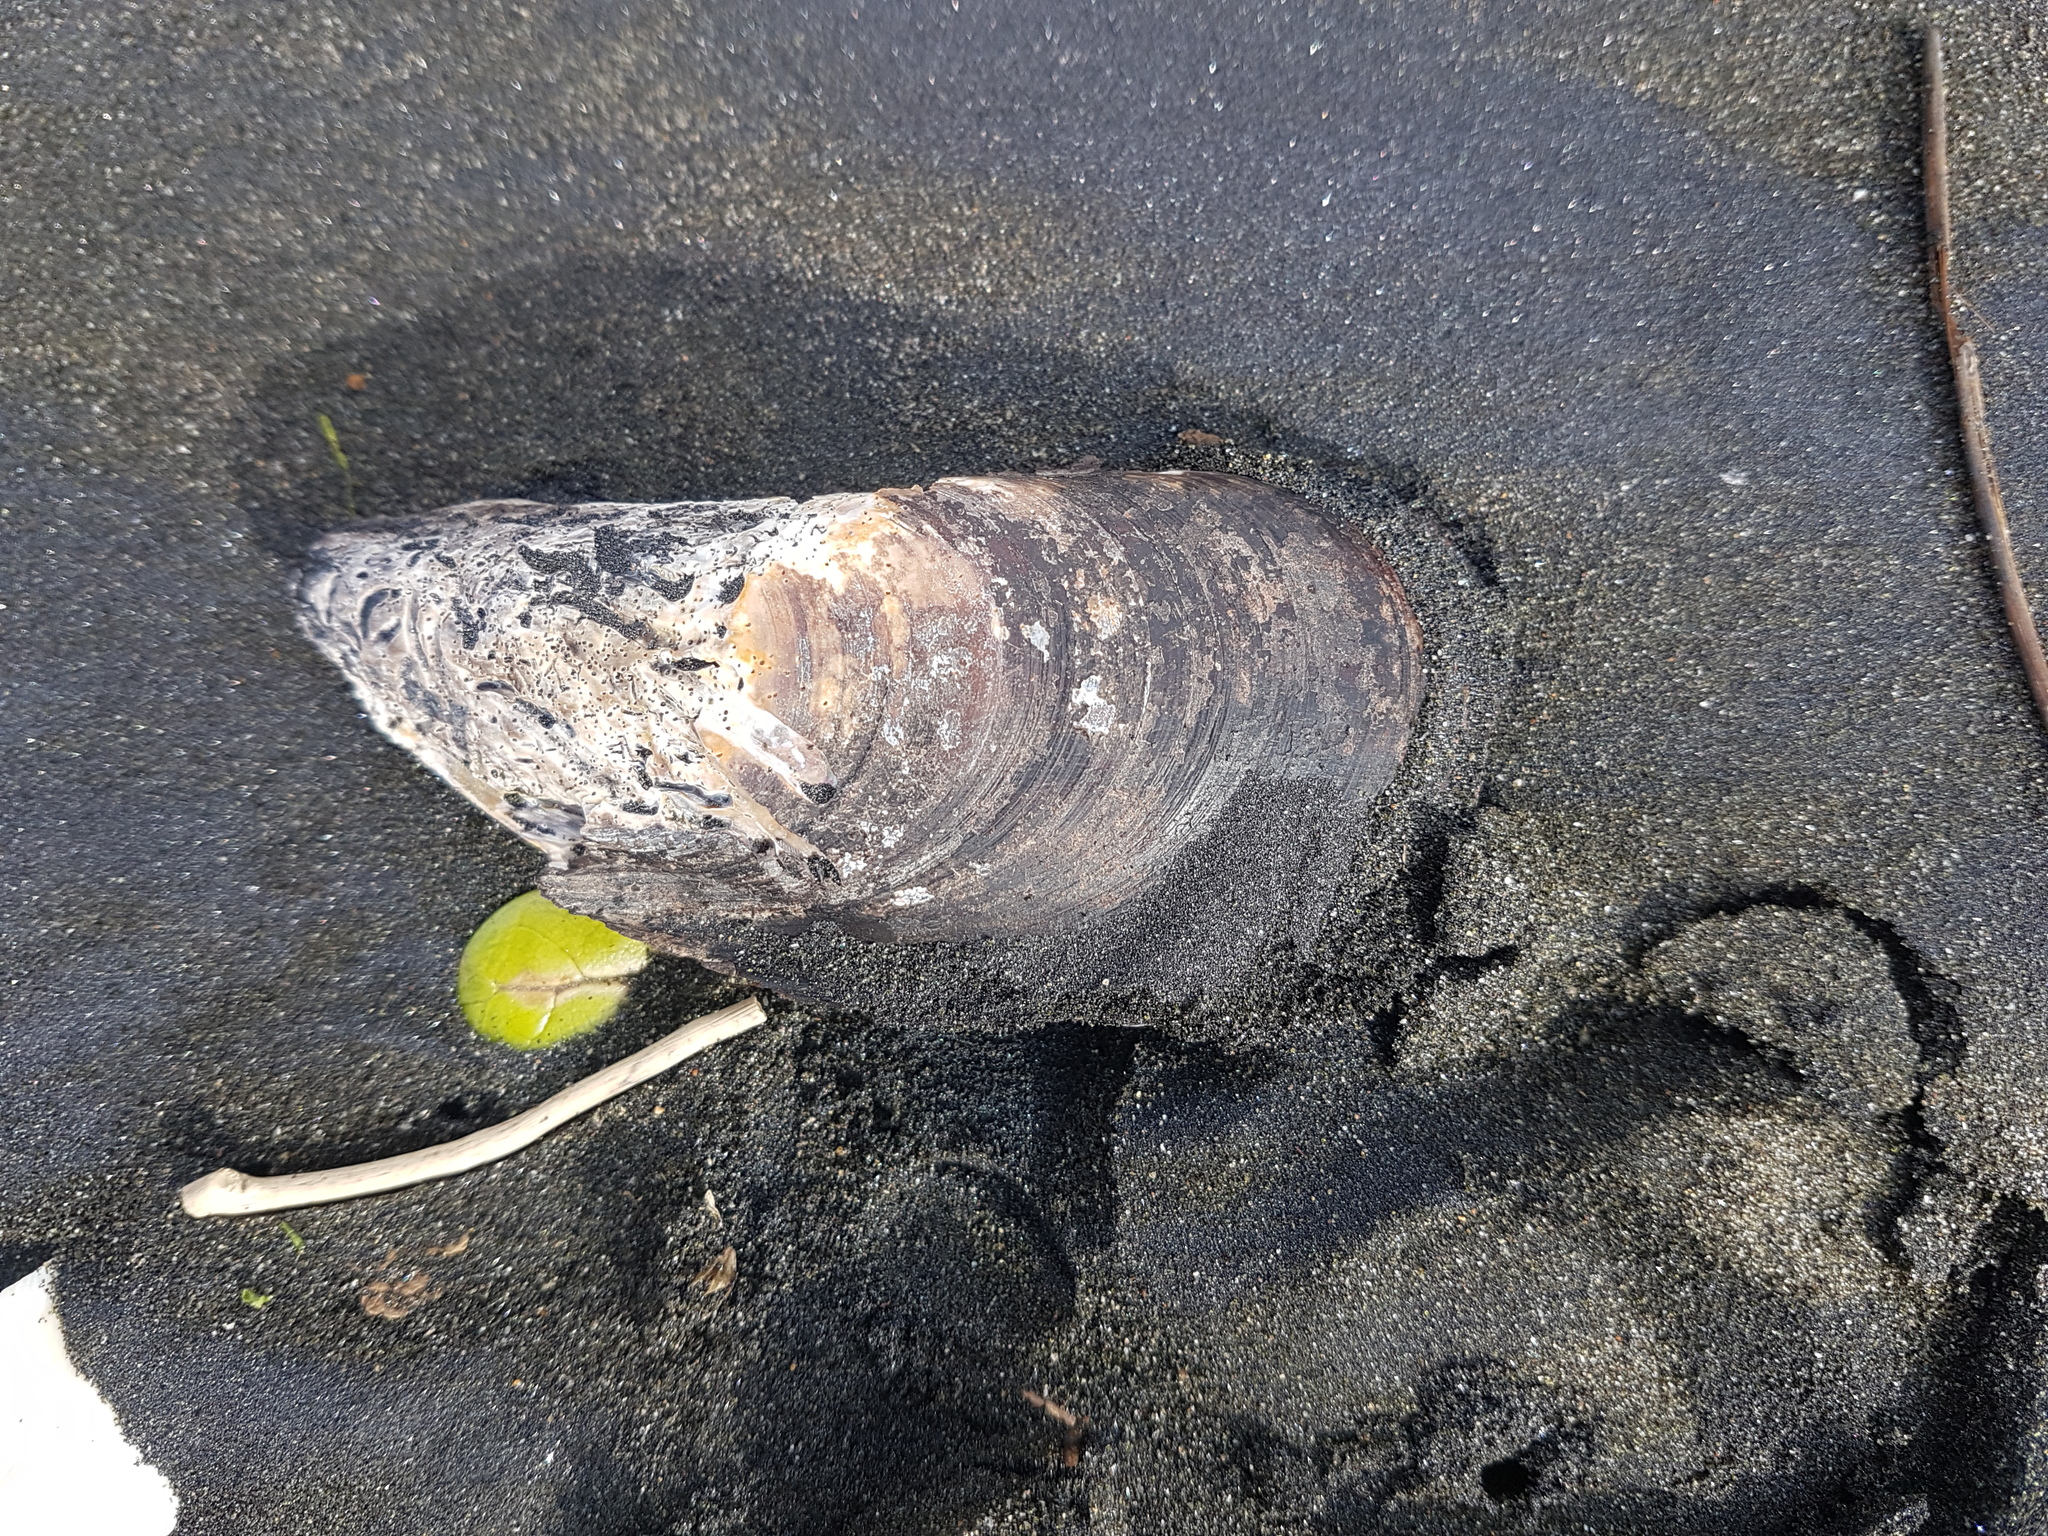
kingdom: Animalia
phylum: Mollusca
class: Bivalvia
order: Mytilida
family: Mytilidae
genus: Perna
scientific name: Perna canaliculus
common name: New zealand greenshelltm
